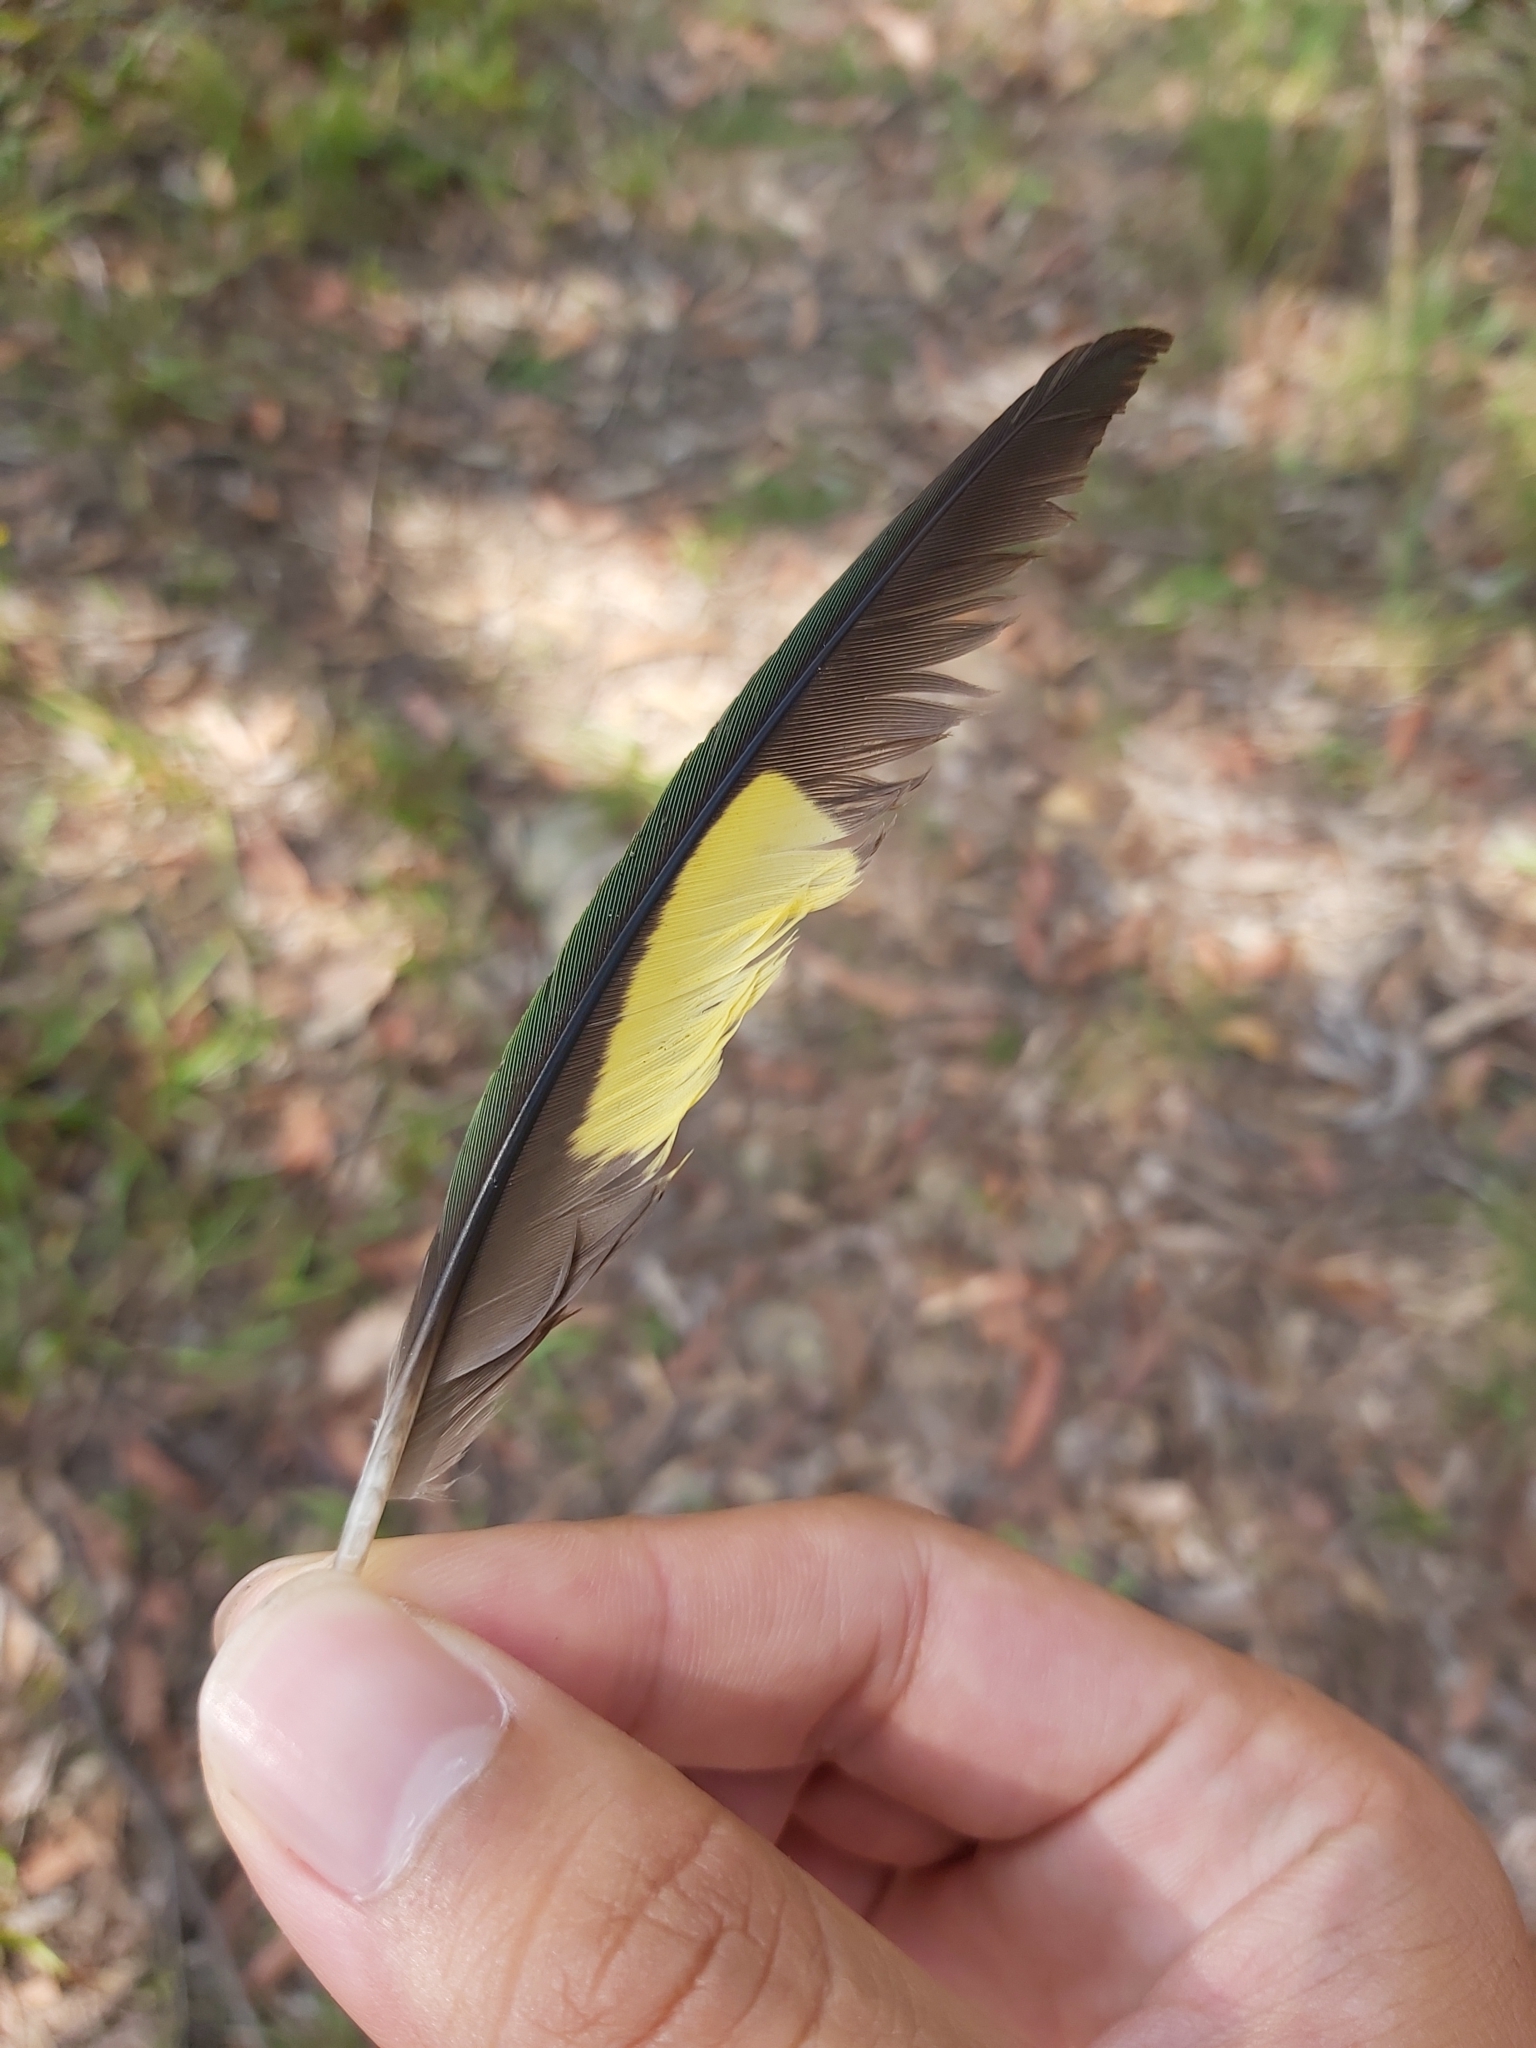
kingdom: Animalia
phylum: Chordata
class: Aves
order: Psittaciformes
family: Psittacidae
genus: Trichoglossus
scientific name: Trichoglossus haematodus
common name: Coconut lorikeet
